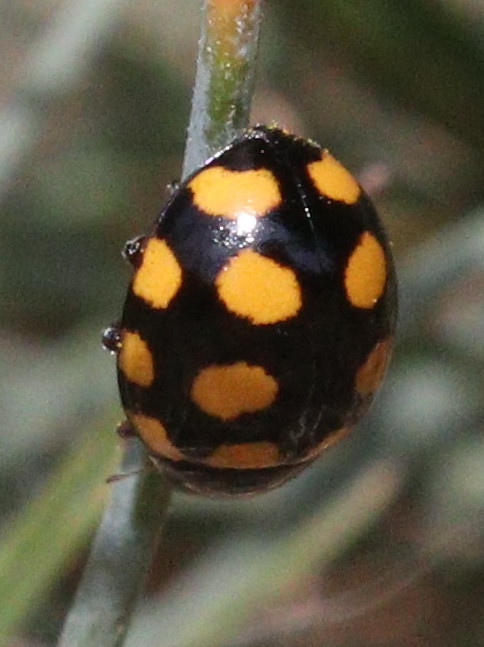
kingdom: Animalia
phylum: Arthropoda
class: Insecta
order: Coleoptera
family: Coccinellidae
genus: Coccinula
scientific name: Coccinula quatuordecimpustulata
